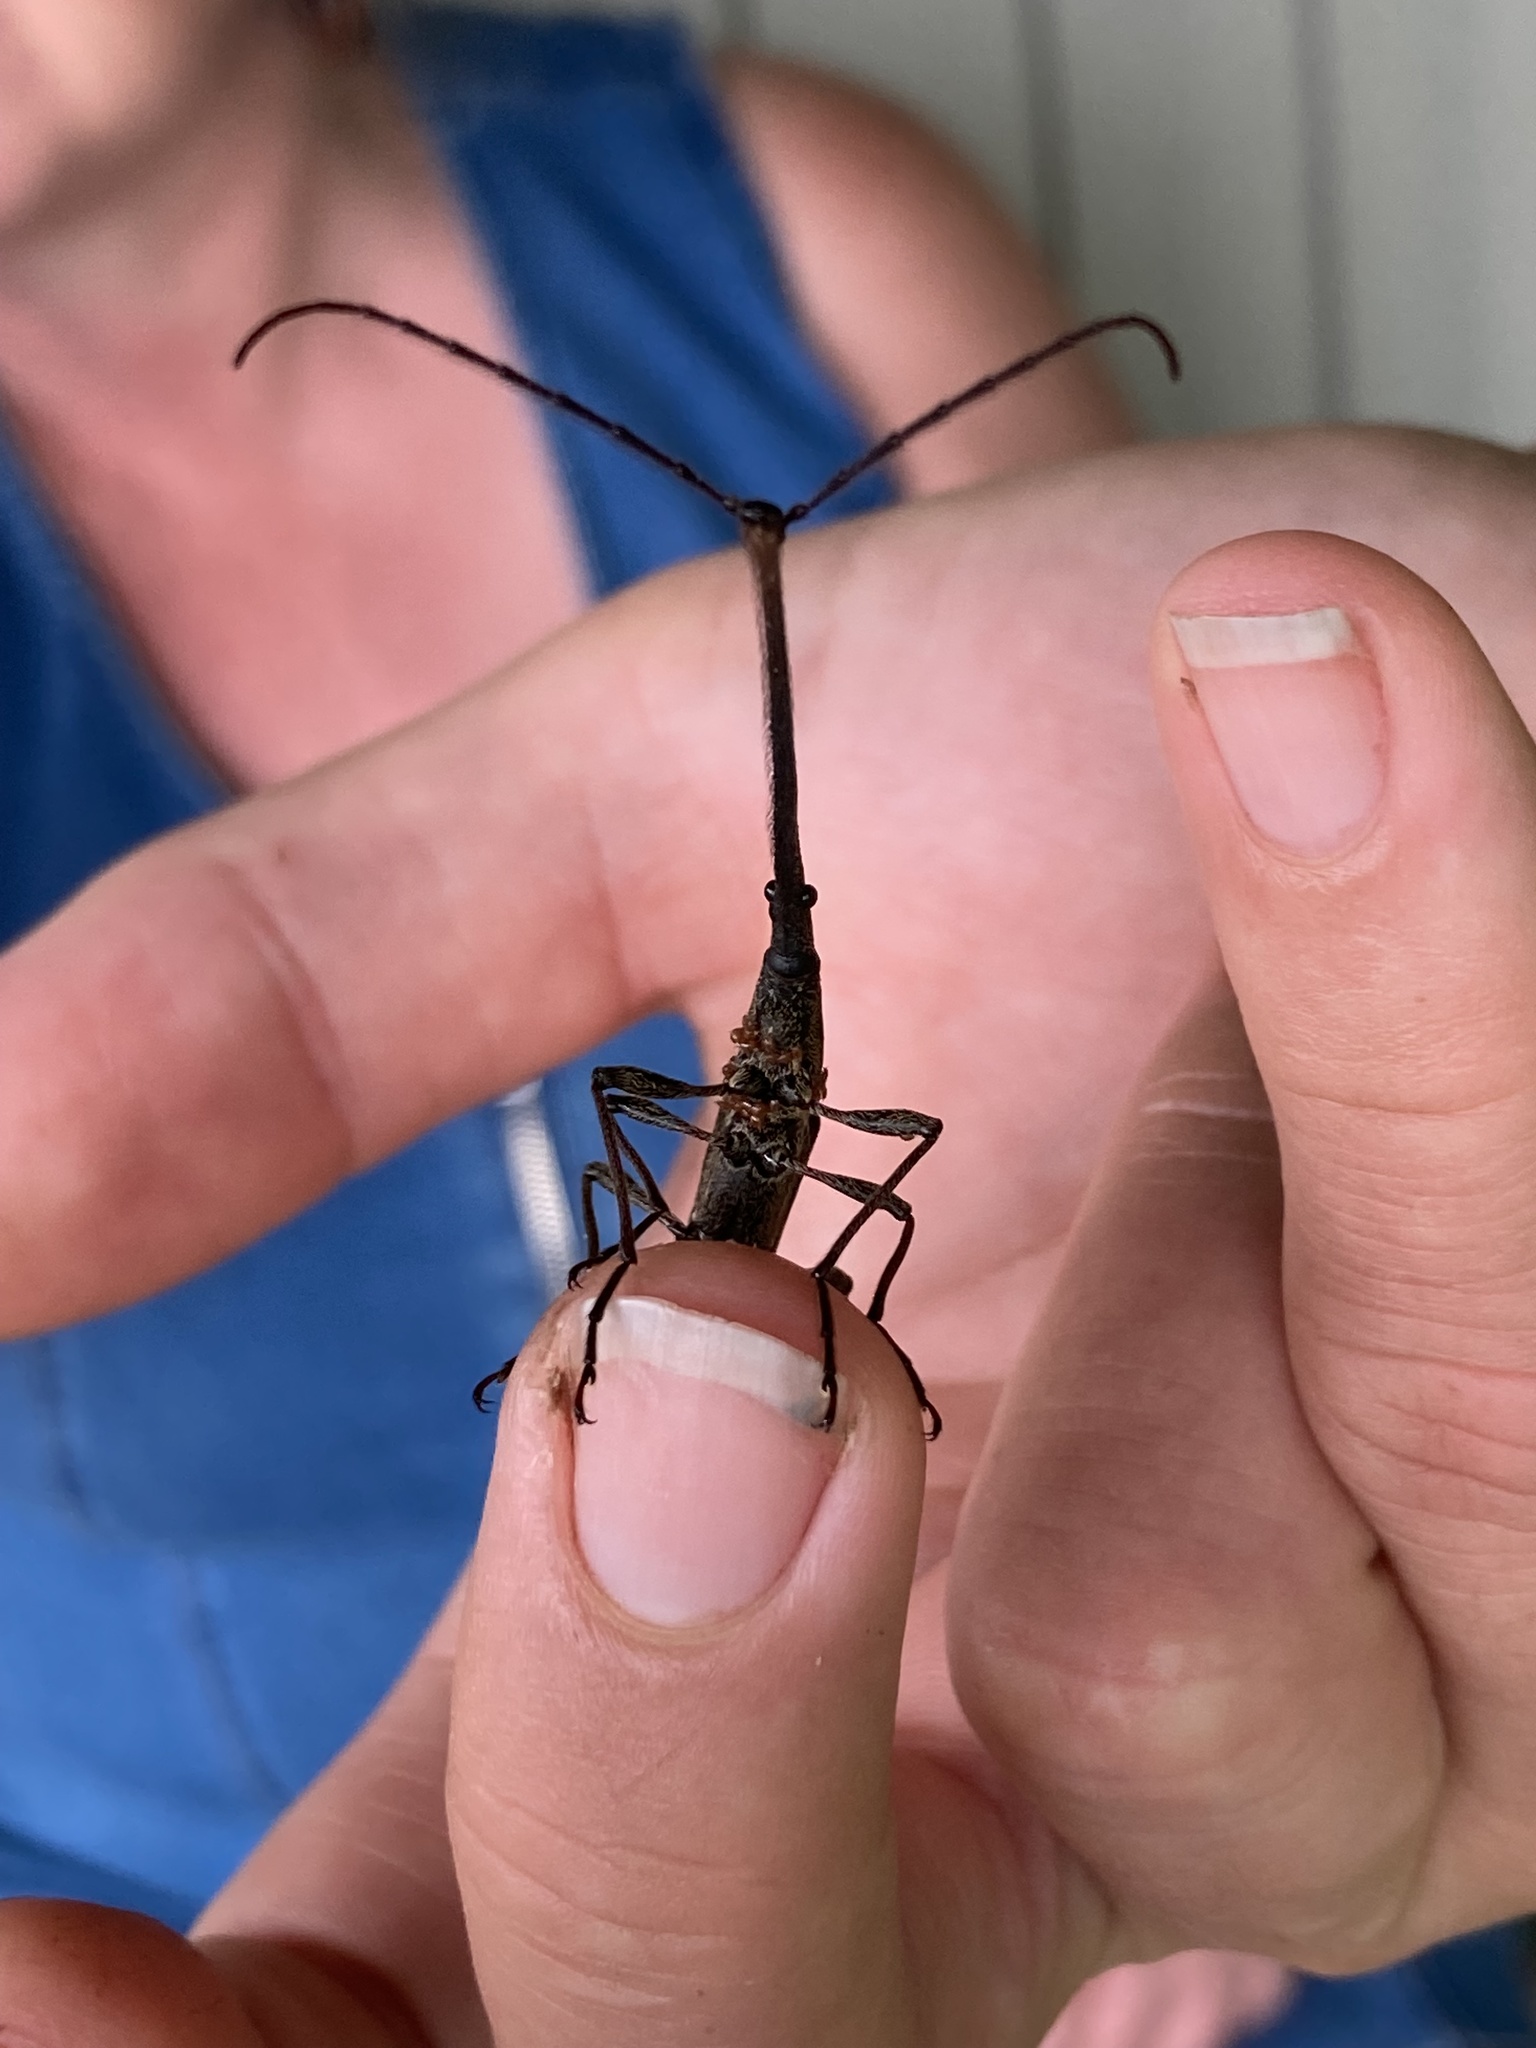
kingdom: Animalia
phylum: Arthropoda
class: Insecta
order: Coleoptera
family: Brentidae
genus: Lasiorhynchus
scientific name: Lasiorhynchus barbicornis
